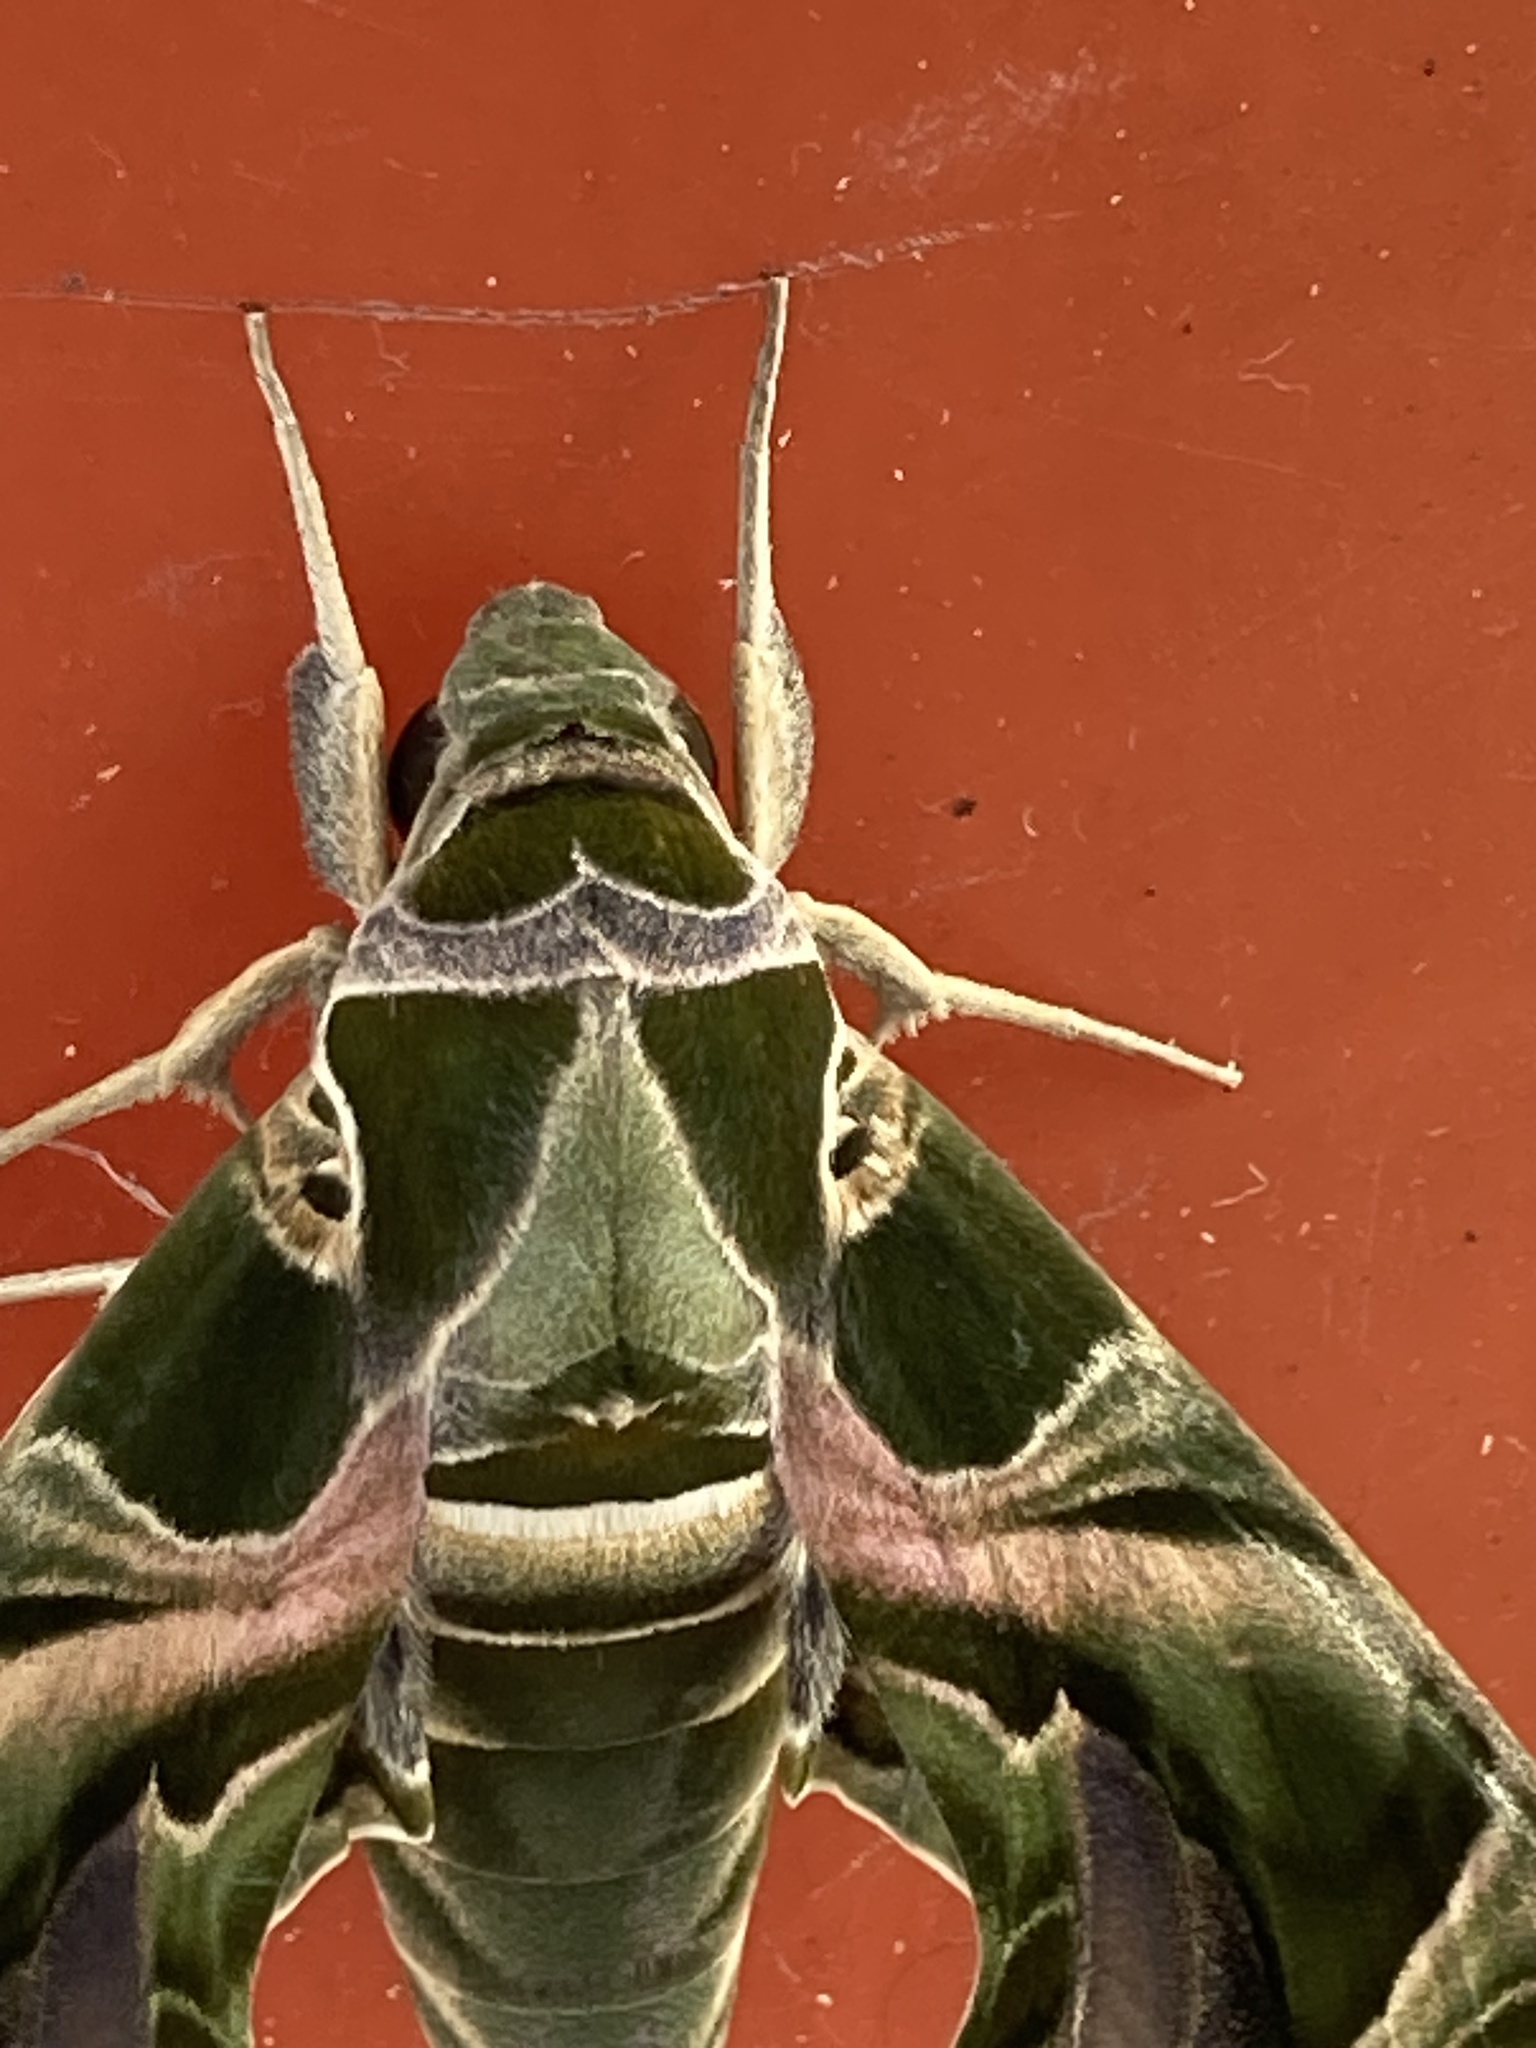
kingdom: Animalia
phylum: Arthropoda
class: Insecta
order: Lepidoptera
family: Sphingidae
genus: Daphnis
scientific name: Daphnis nerii
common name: Oleander hawk-moth
